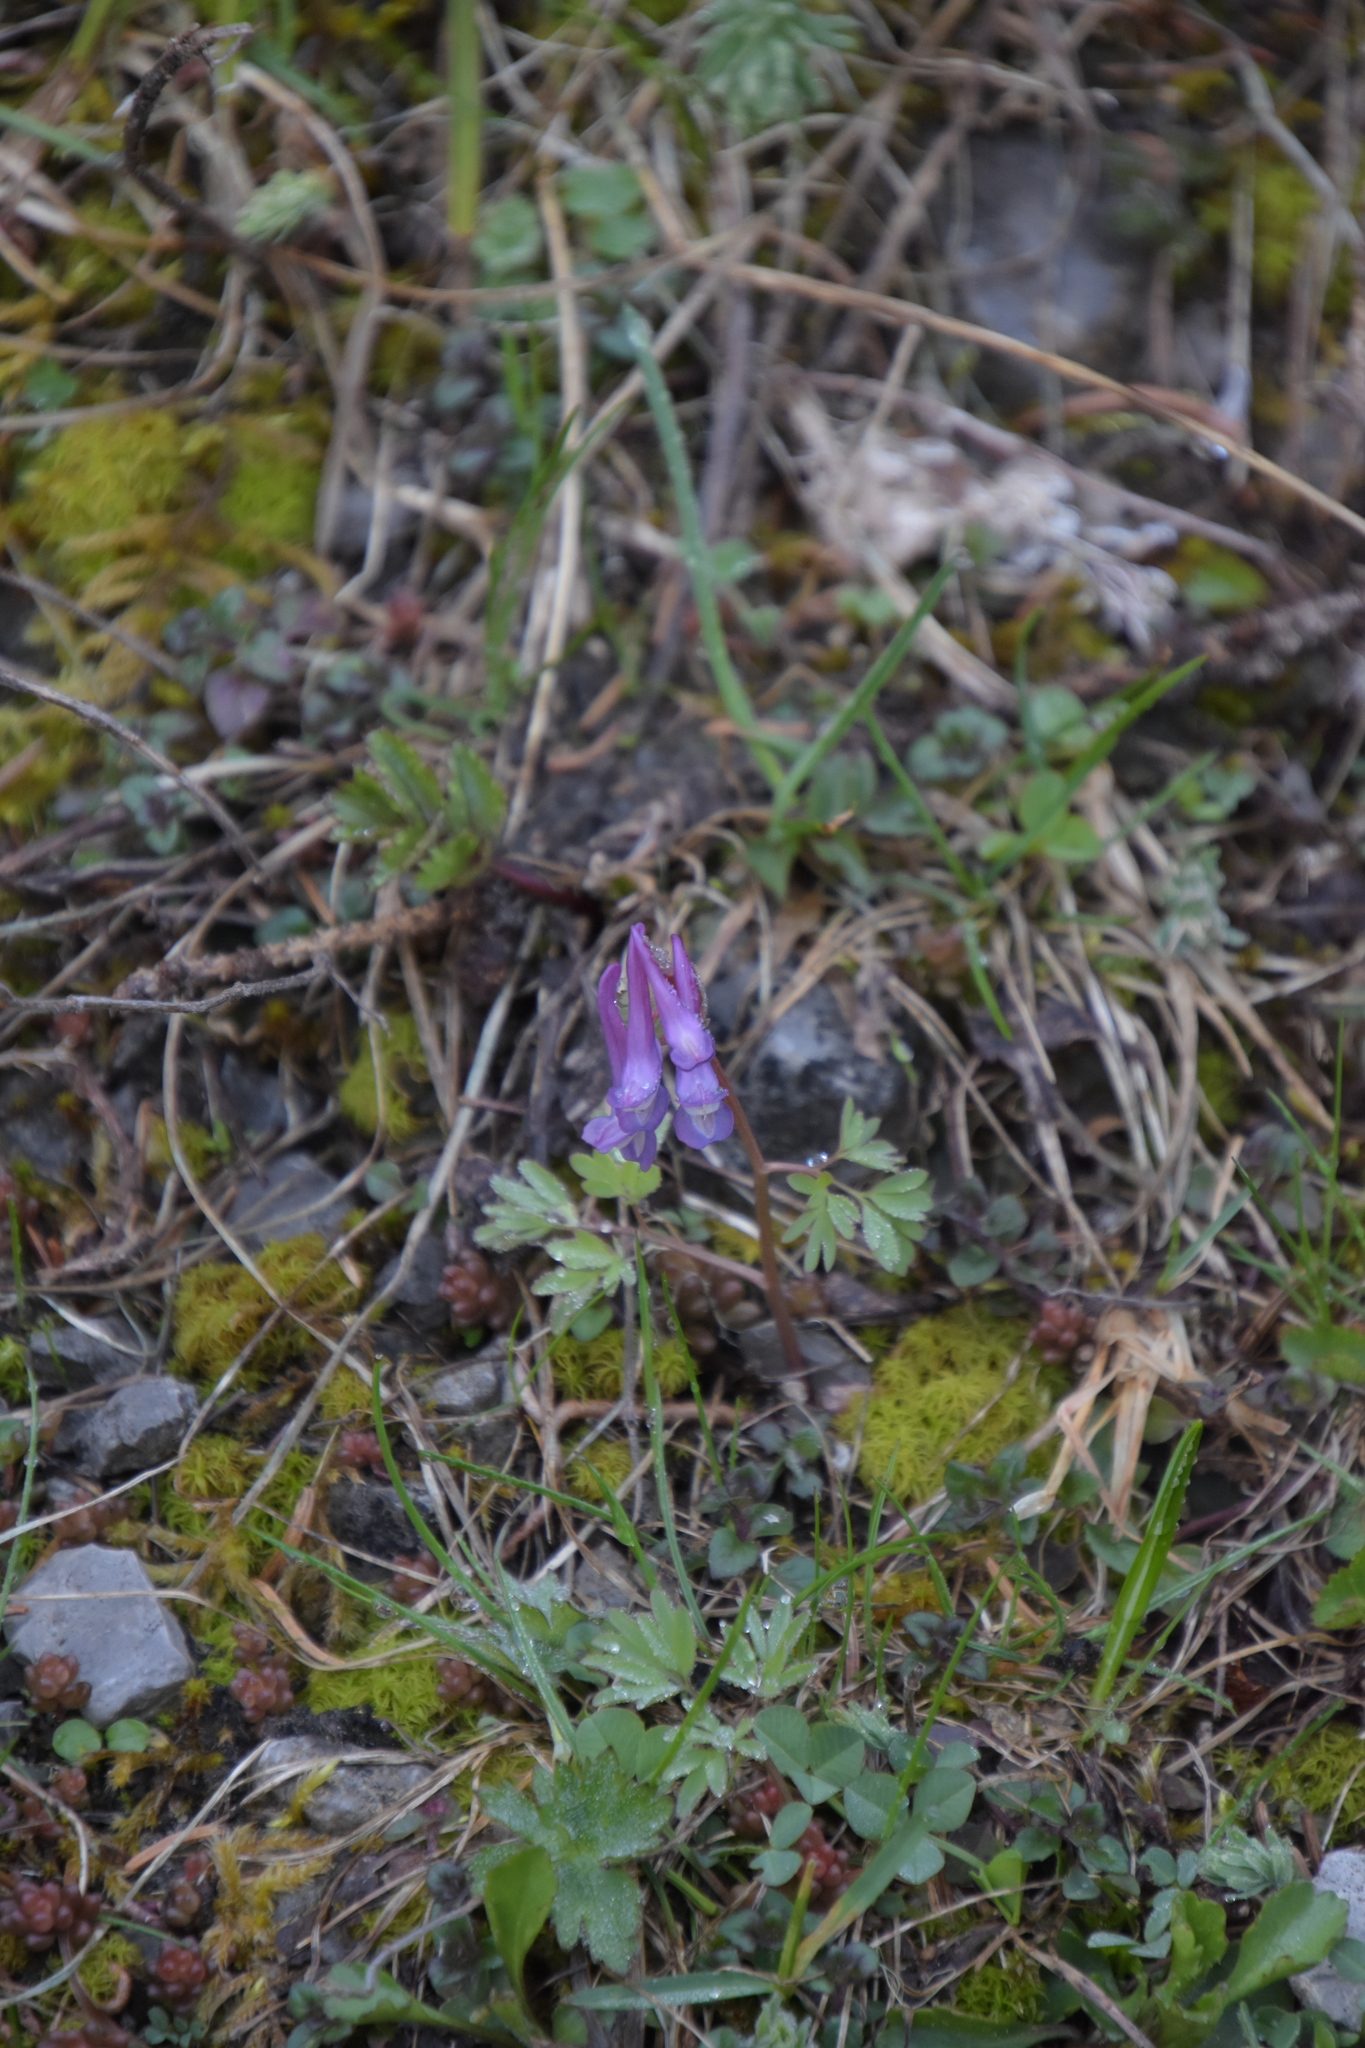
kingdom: Plantae
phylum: Tracheophyta
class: Magnoliopsida
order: Ranunculales
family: Papaveraceae
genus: Corydalis
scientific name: Corydalis solida
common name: Bird-in-a-bush
